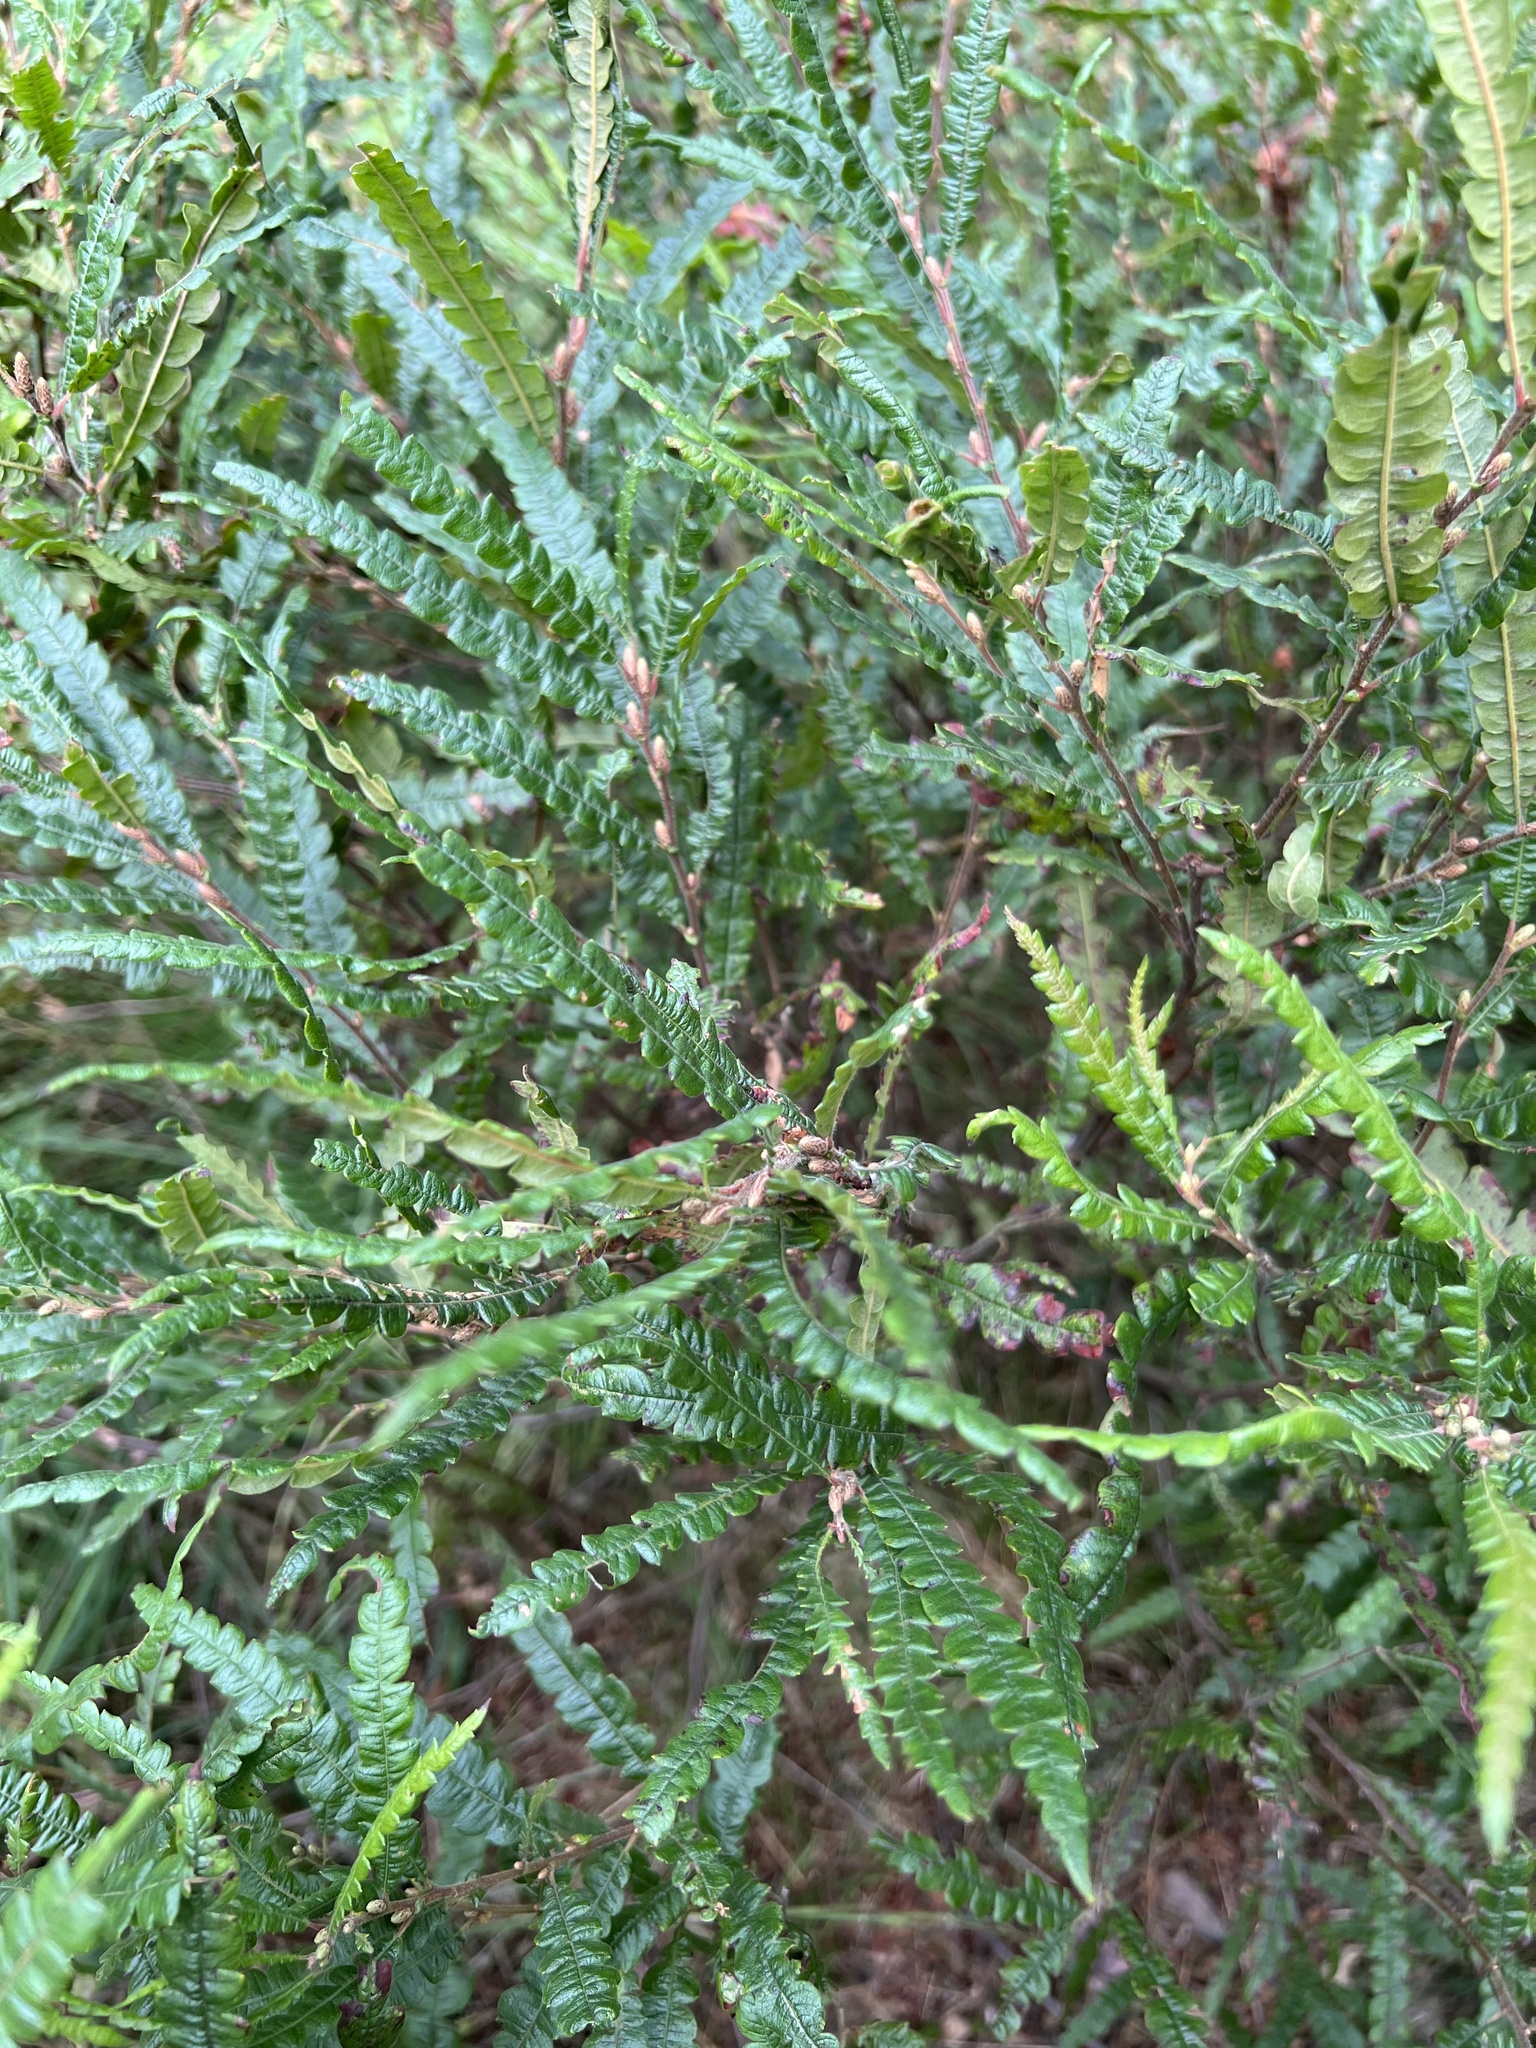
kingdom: Plantae
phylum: Tracheophyta
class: Magnoliopsida
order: Fagales
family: Myricaceae
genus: Comptonia
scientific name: Comptonia peregrina
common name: Sweet-fern
